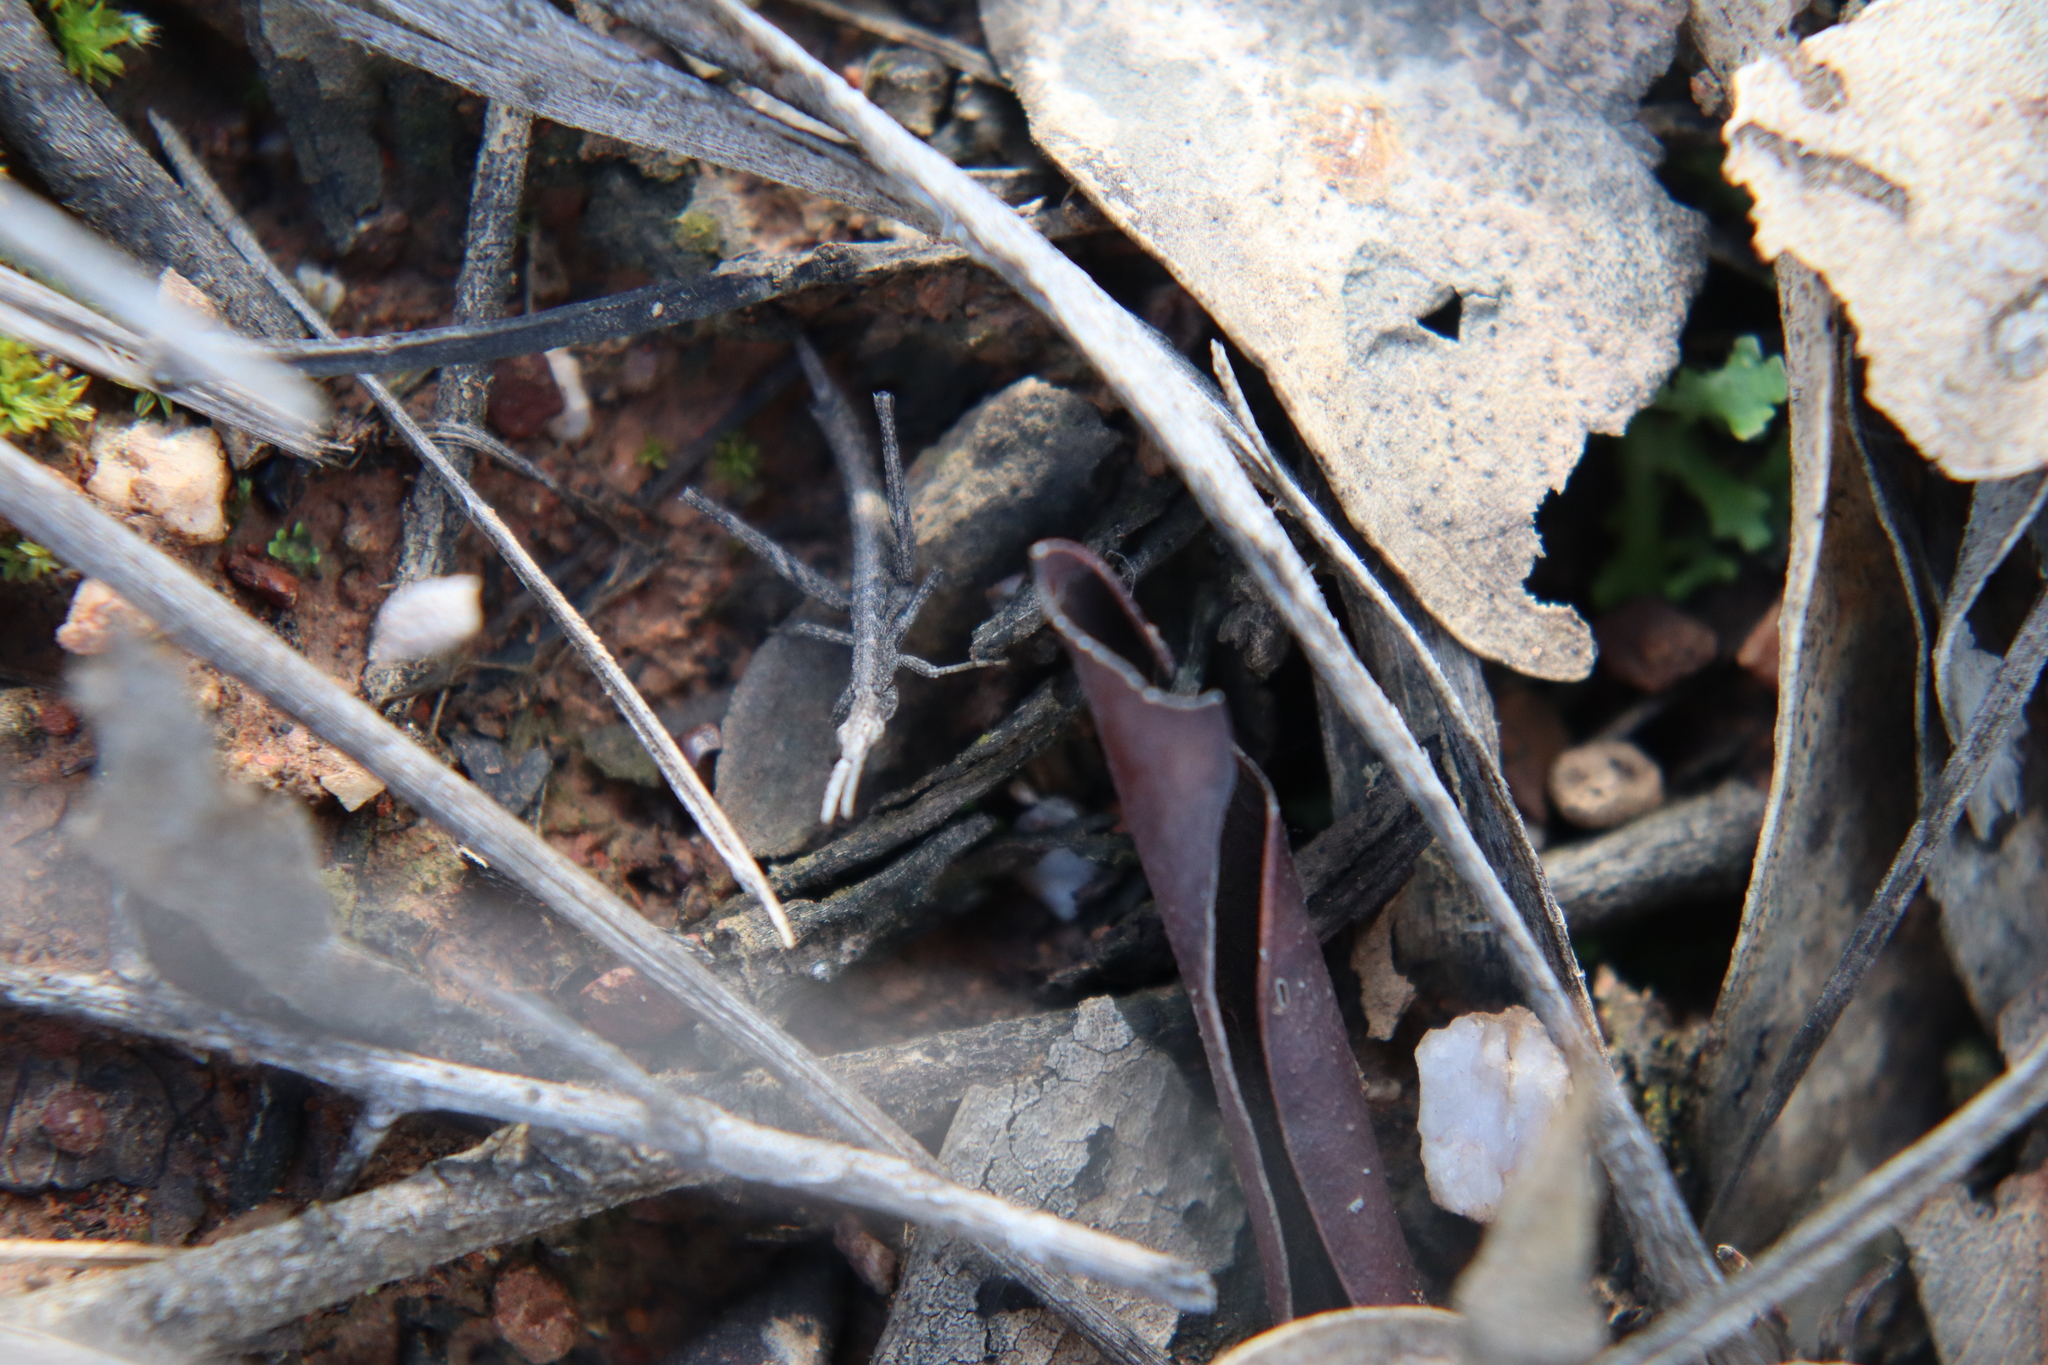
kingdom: Animalia
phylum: Arthropoda
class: Insecta
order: Orthoptera
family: Morabidae
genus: Vandiemenella
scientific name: Vandiemenella viatica
